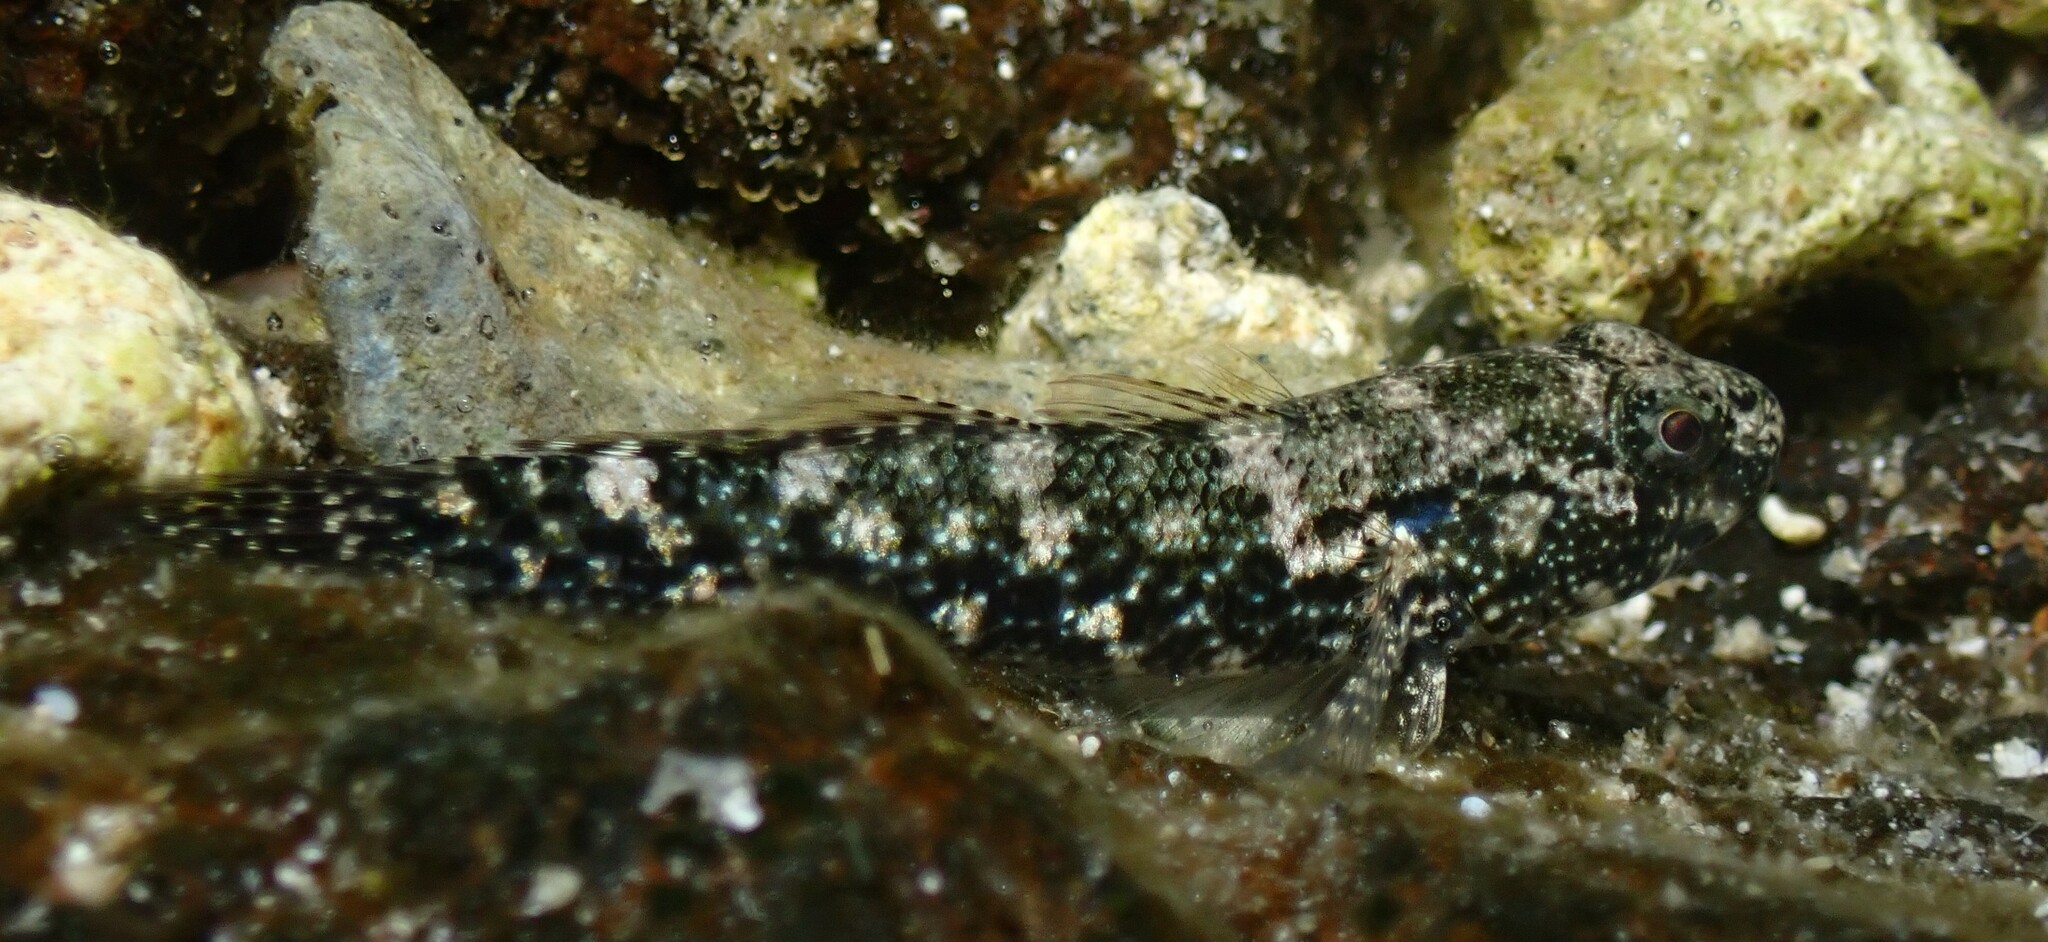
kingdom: Animalia
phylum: Chordata
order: Perciformes
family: Gobiidae
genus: Bathygobius
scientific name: Bathygobius coalitus
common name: Whitespotted goby
